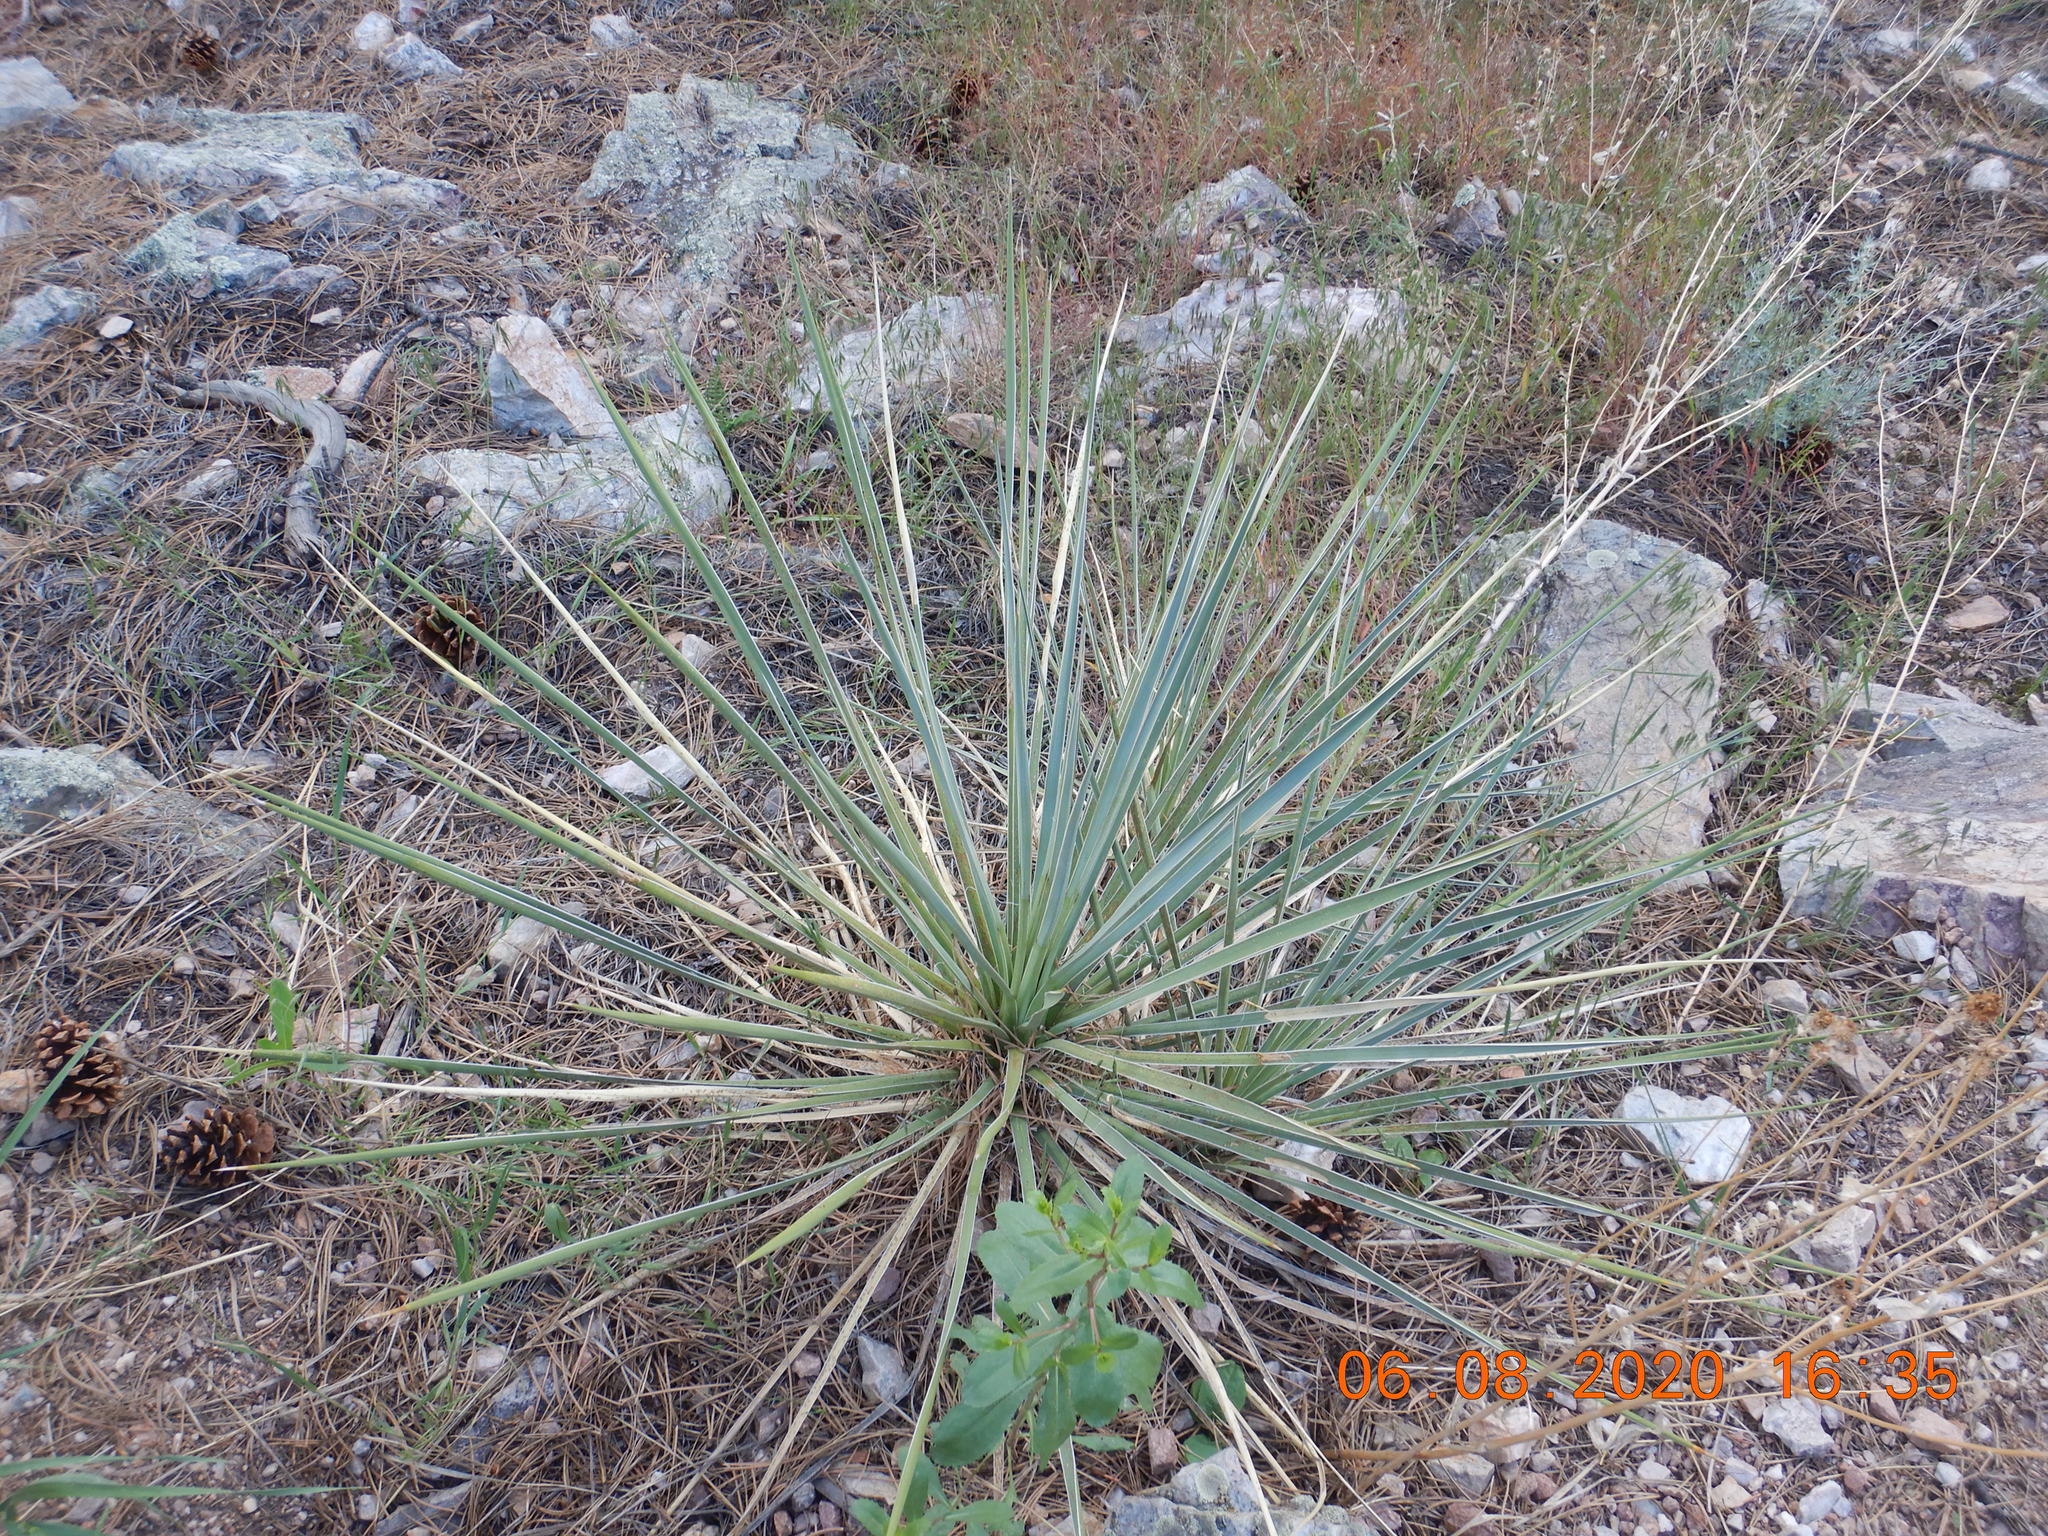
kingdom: Plantae
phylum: Tracheophyta
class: Liliopsida
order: Asparagales
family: Asparagaceae
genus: Yucca
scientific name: Yucca glauca
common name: Great plains yucca
